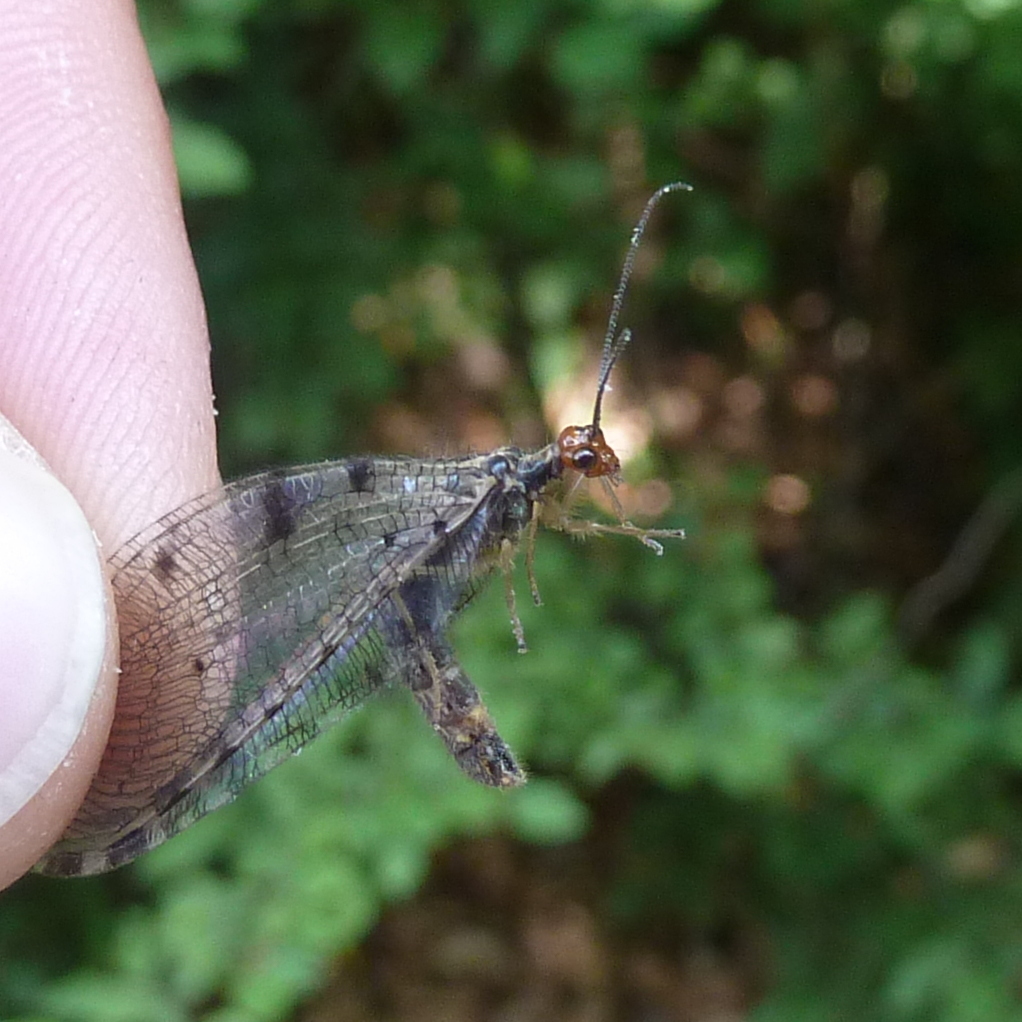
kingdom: Animalia
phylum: Arthropoda
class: Insecta
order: Neuroptera
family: Osmylidae
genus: Osmylus
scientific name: Osmylus fulvicephalus
